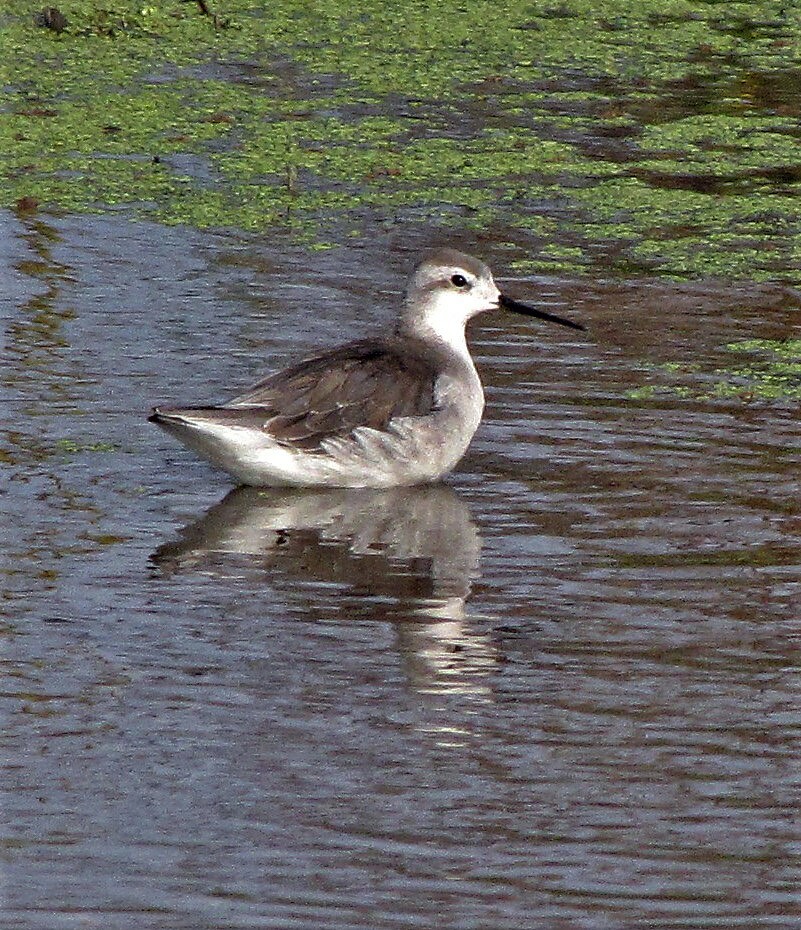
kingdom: Animalia
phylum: Chordata
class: Aves
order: Charadriiformes
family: Scolopacidae
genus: Phalaropus
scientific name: Phalaropus tricolor
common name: Wilson's phalarope
